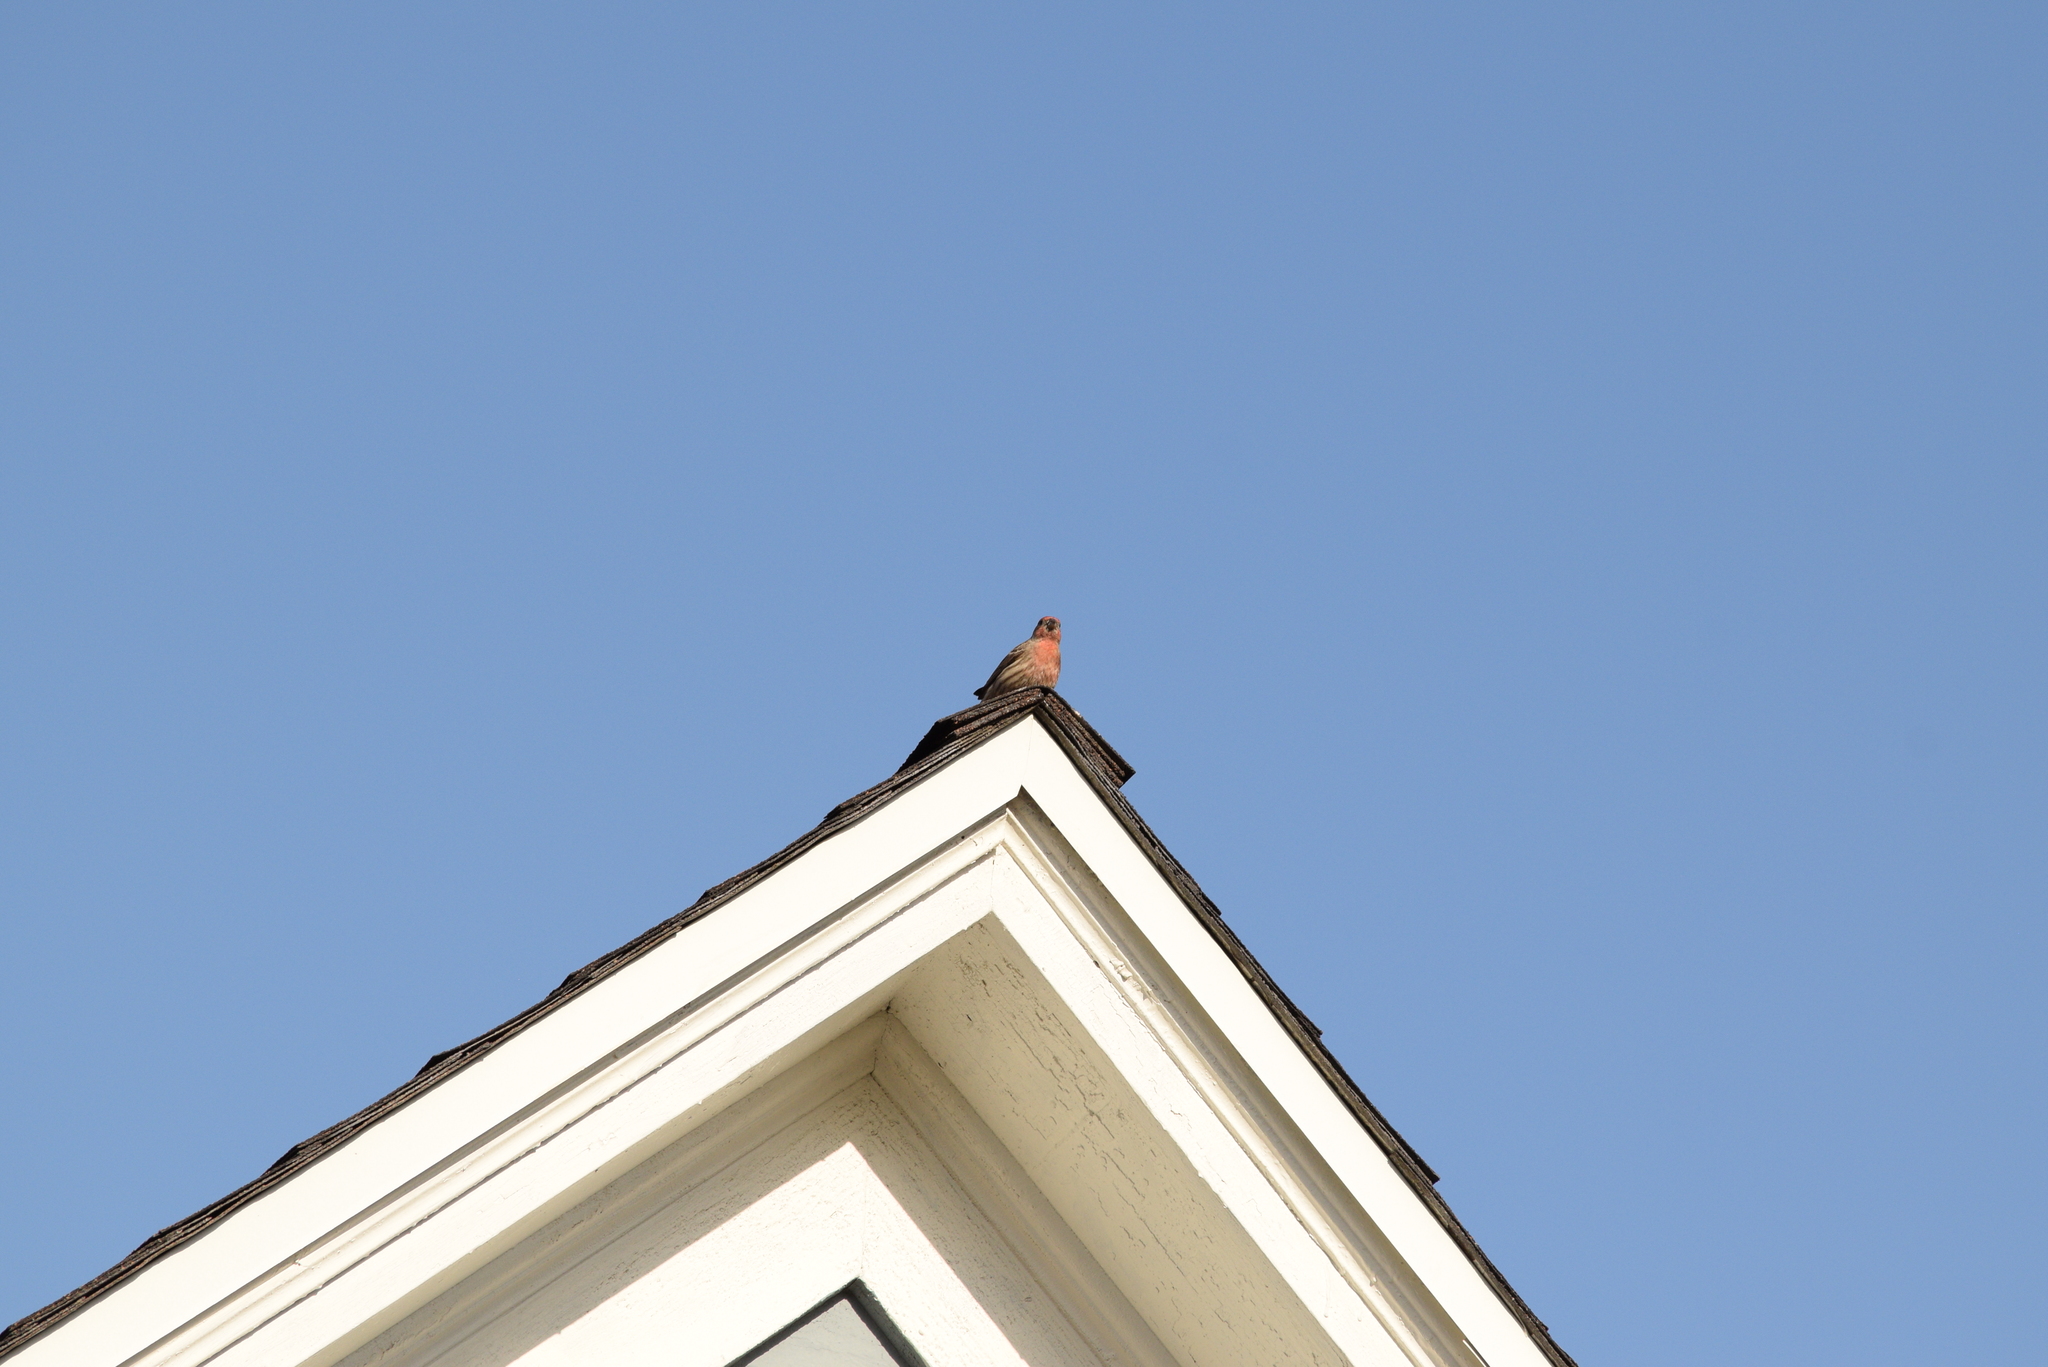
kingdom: Animalia
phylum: Chordata
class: Aves
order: Passeriformes
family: Fringillidae
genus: Haemorhous
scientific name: Haemorhous mexicanus
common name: House finch
